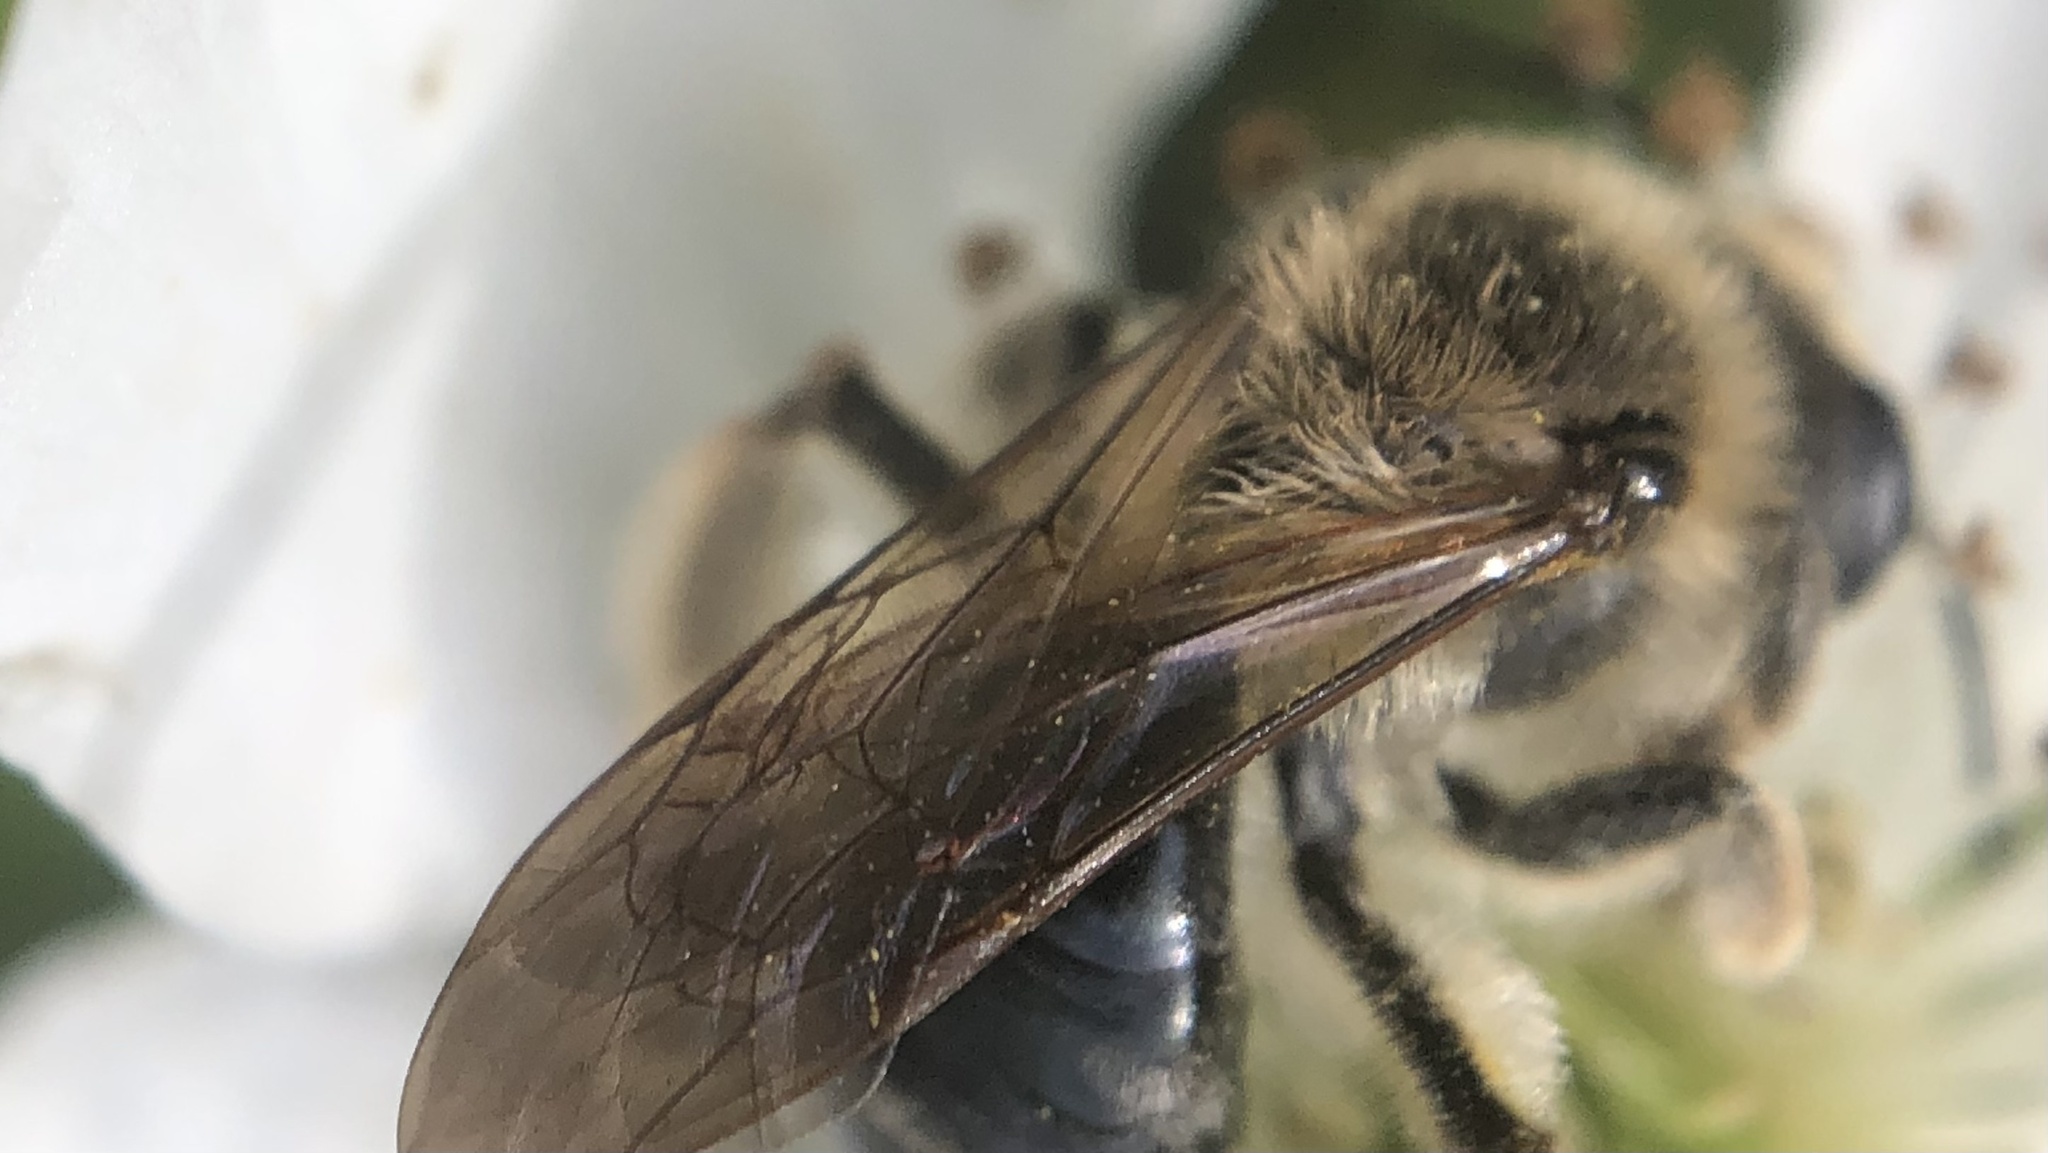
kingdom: Animalia
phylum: Arthropoda
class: Insecta
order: Hymenoptera
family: Andrenidae
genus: Andrena
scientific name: Andrena barbara
